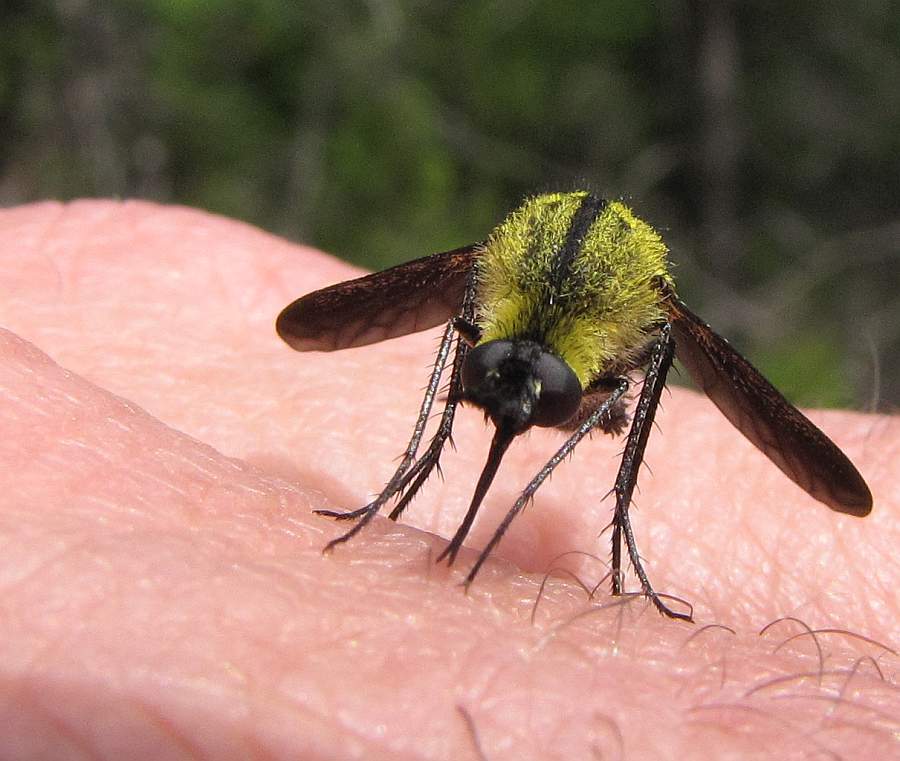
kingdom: Animalia
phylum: Arthropoda
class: Insecta
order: Diptera
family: Bombyliidae
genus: Lepidophora
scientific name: Lepidophora lutea
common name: Hunchback bee fly
